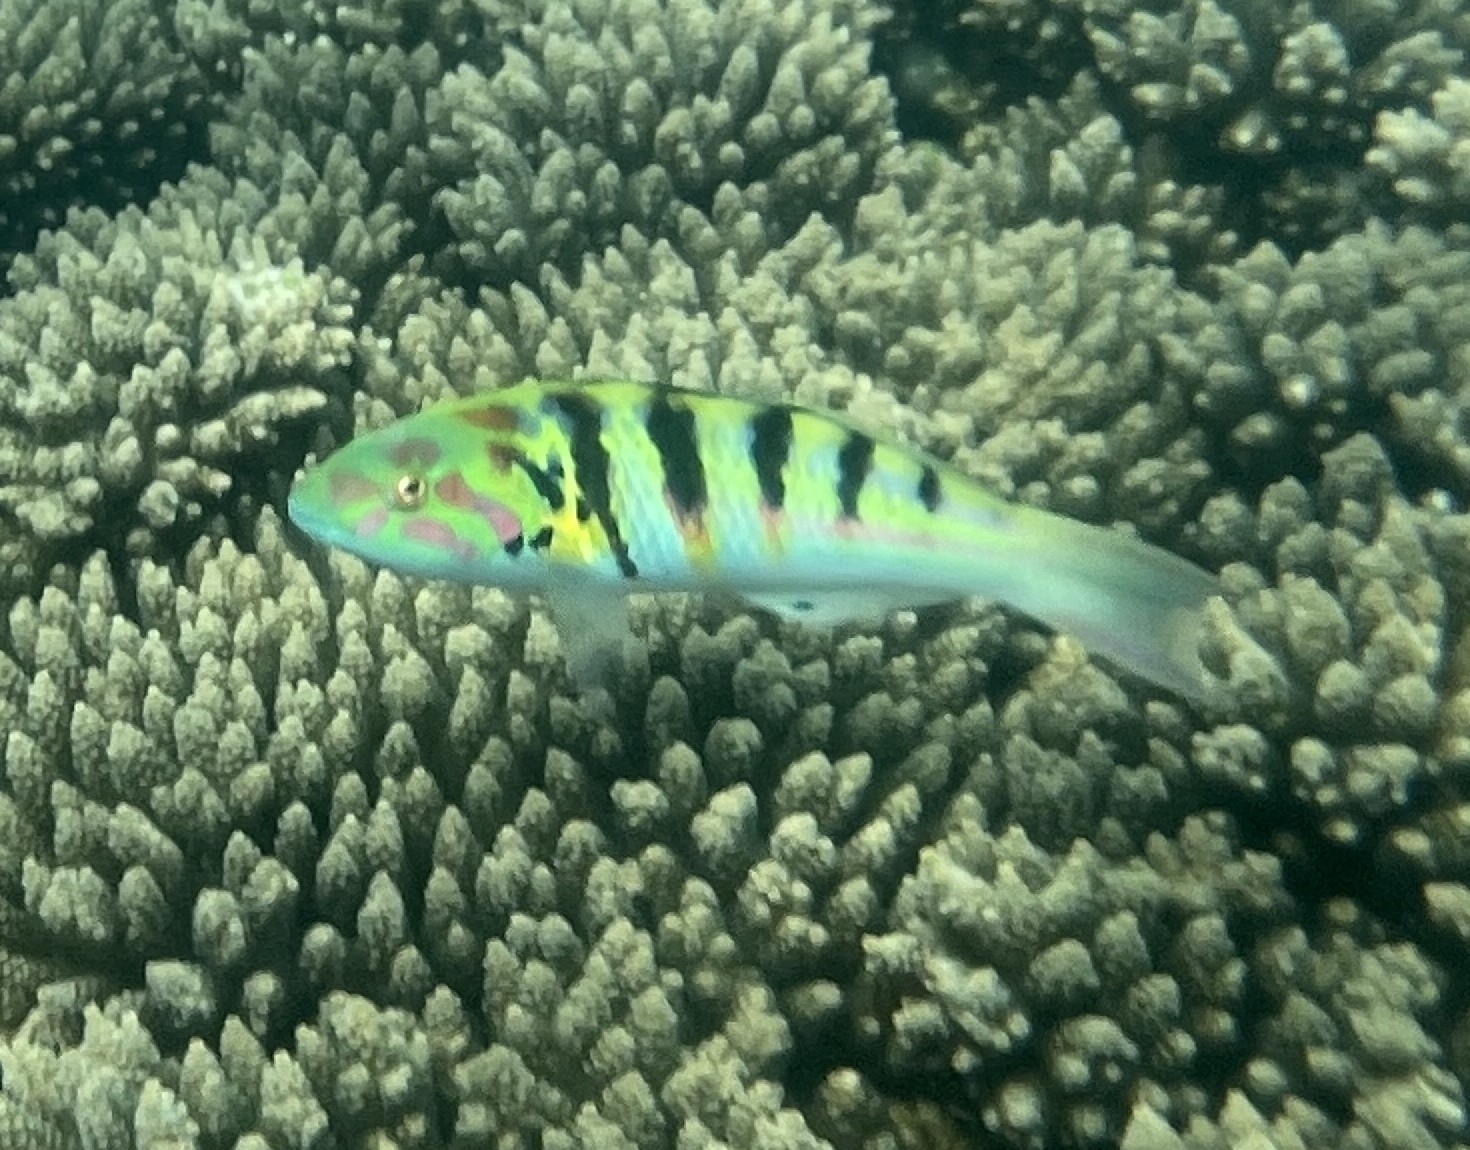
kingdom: Animalia
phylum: Chordata
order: Perciformes
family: Labridae
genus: Thalassoma
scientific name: Thalassoma hardwicke
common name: Sixbar wrasse
